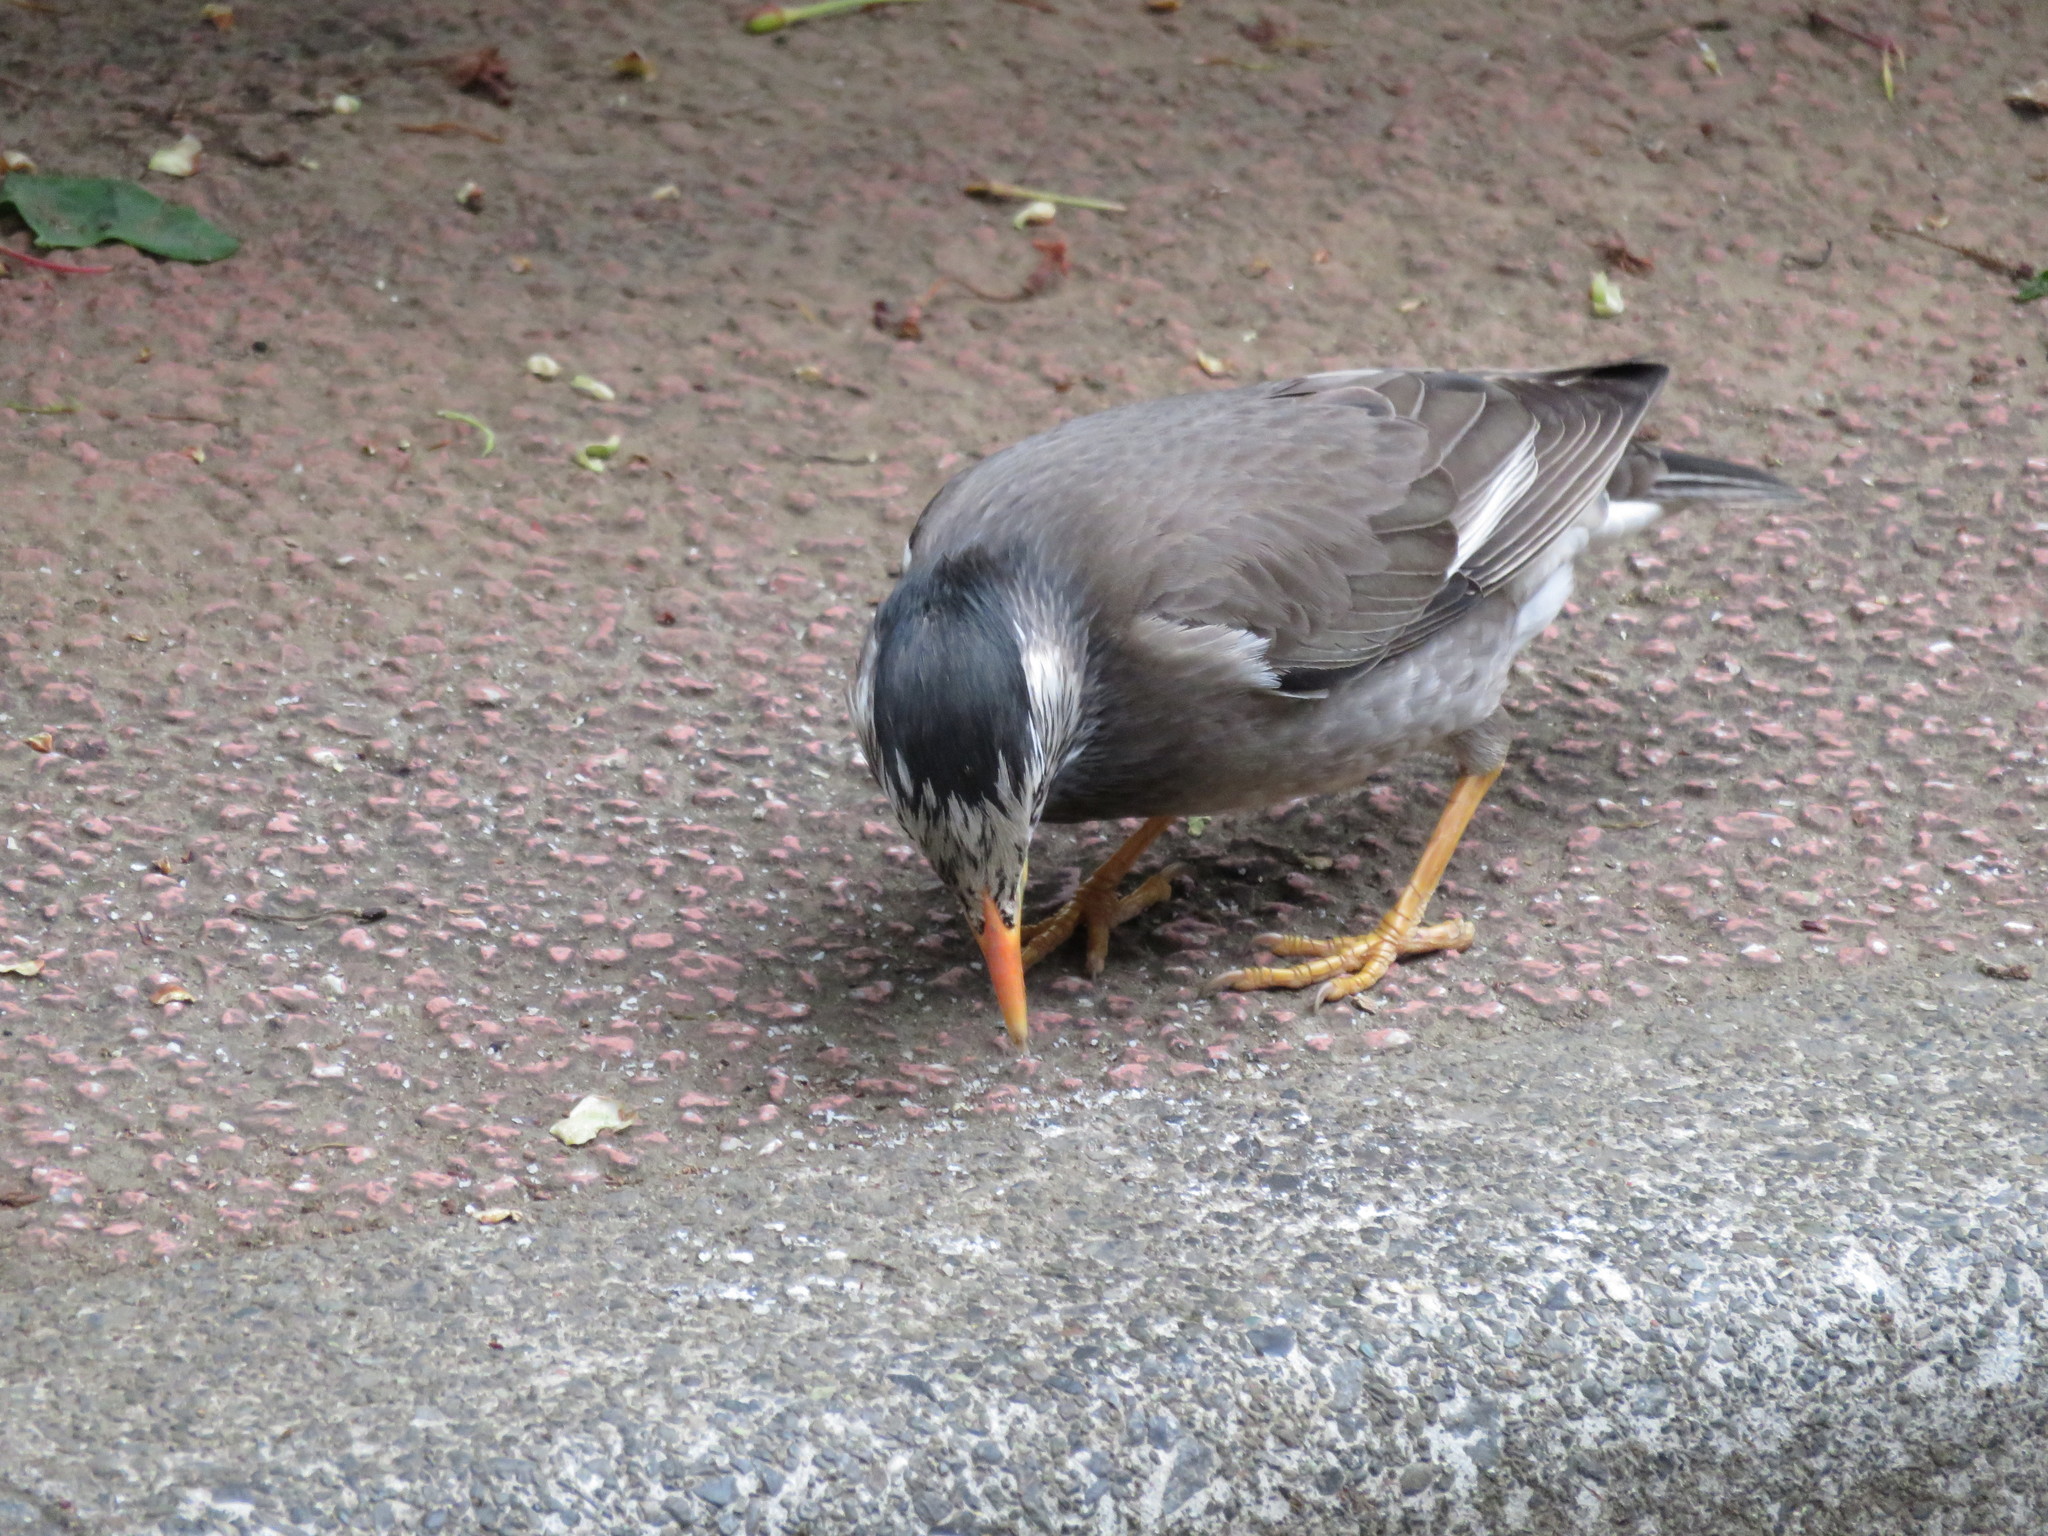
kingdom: Animalia
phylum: Chordata
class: Aves
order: Passeriformes
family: Sturnidae
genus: Spodiopsar
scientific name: Spodiopsar cineraceus
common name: White-cheeked starling
